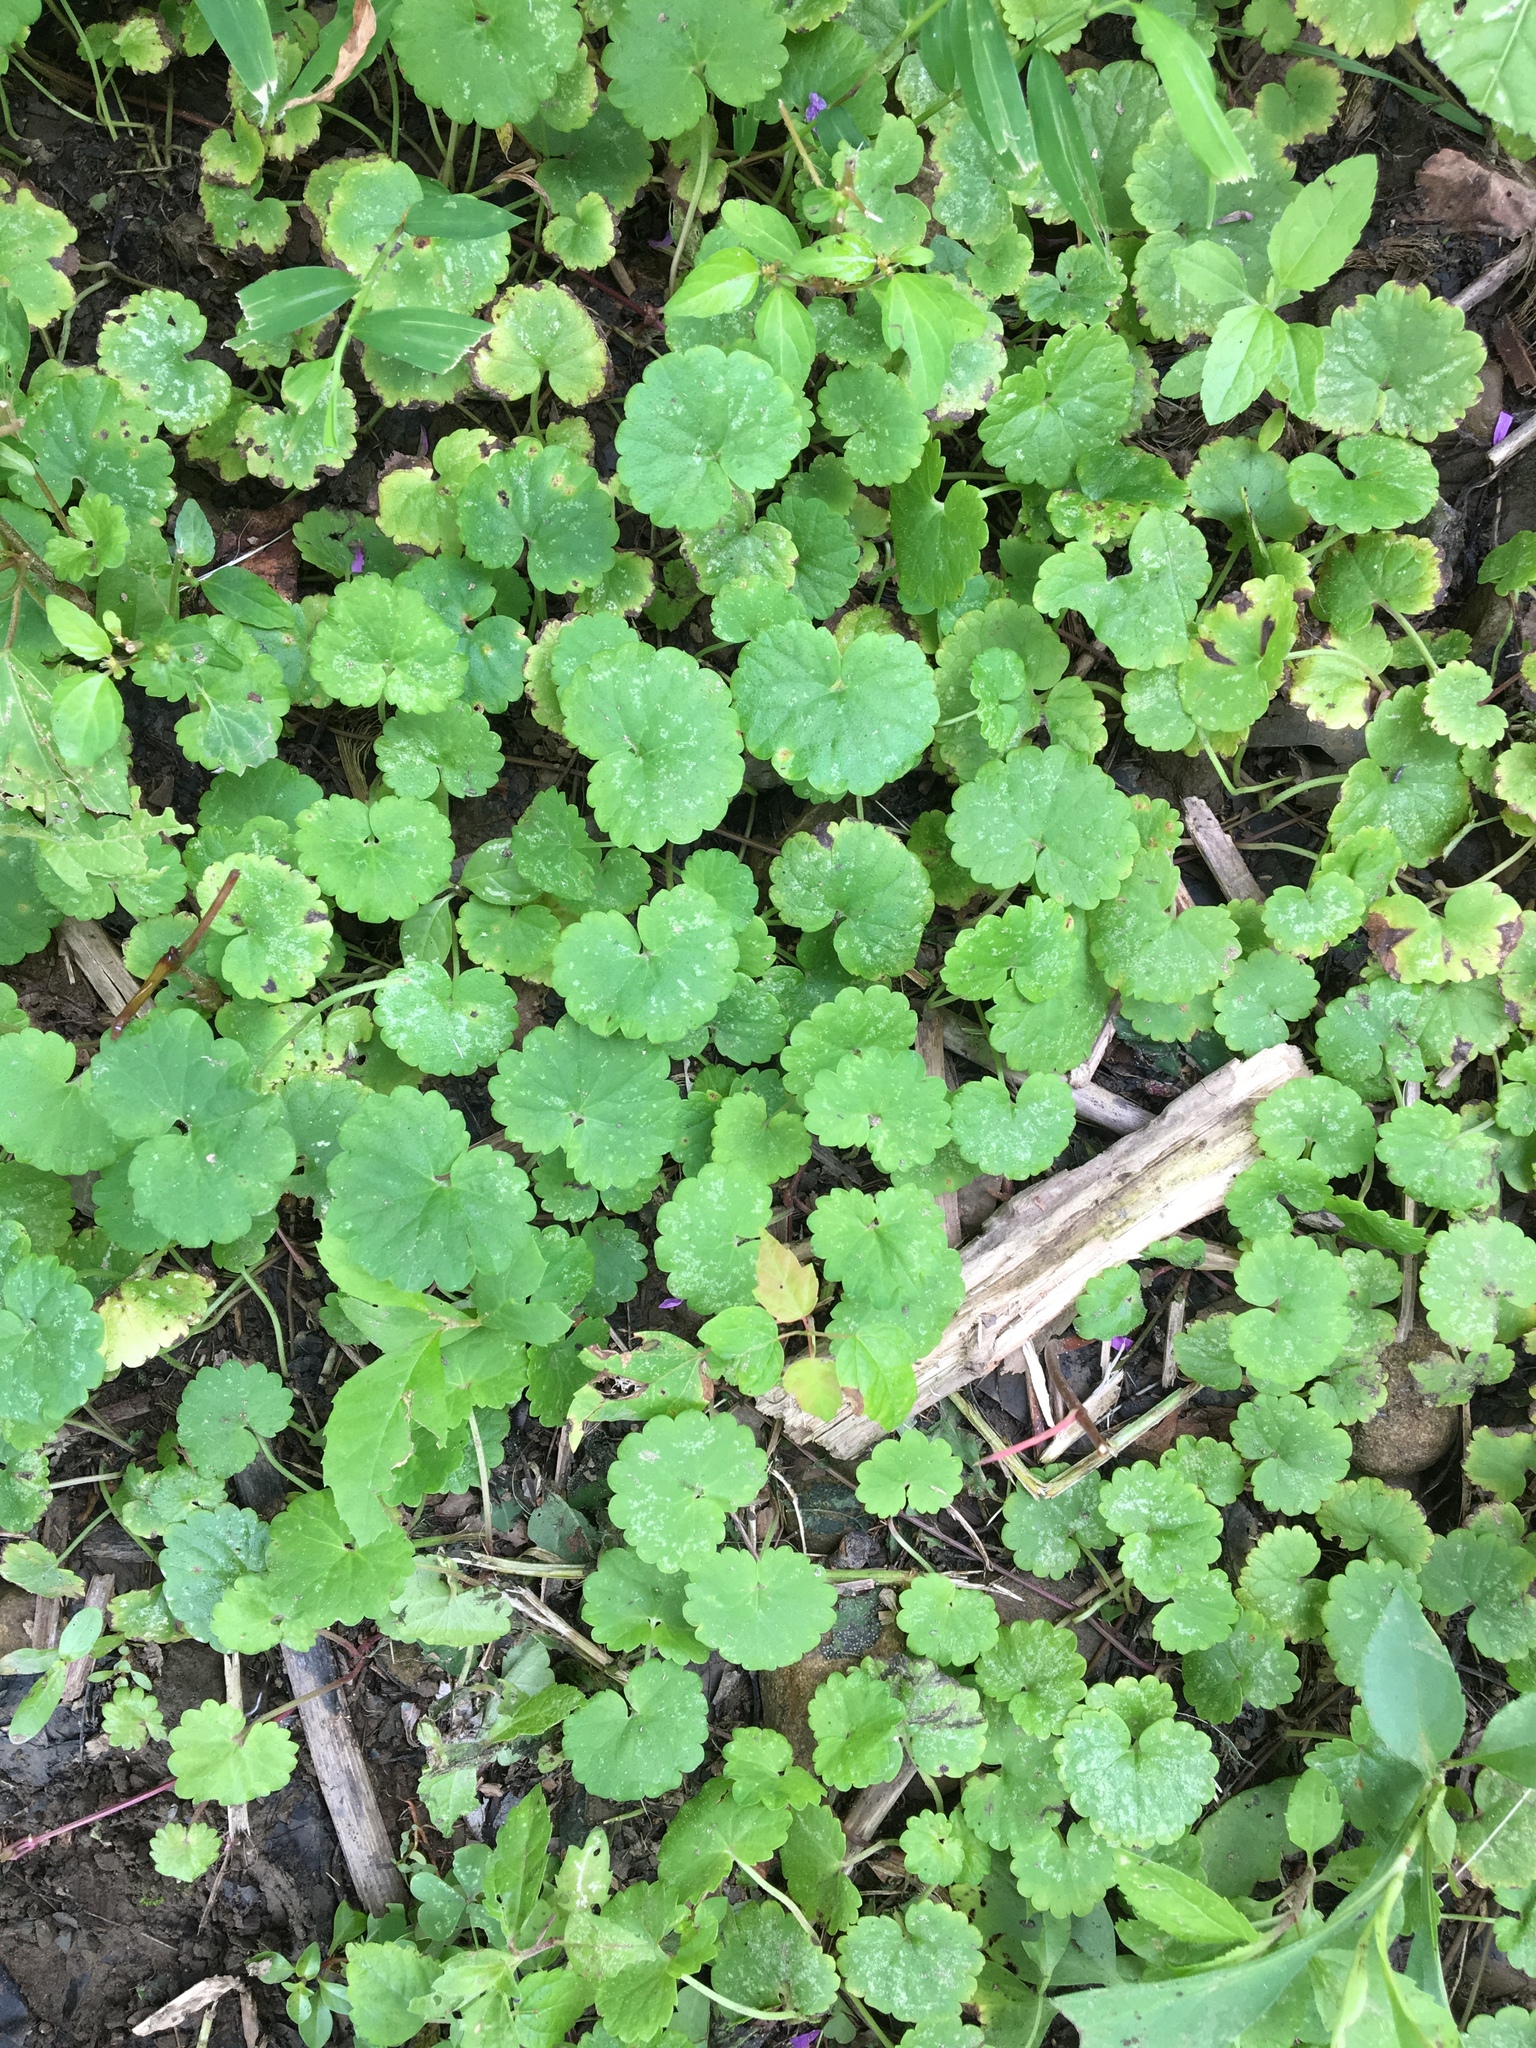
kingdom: Plantae
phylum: Tracheophyta
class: Magnoliopsida
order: Lamiales
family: Lamiaceae
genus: Glechoma
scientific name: Glechoma hederacea
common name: Ground ivy
